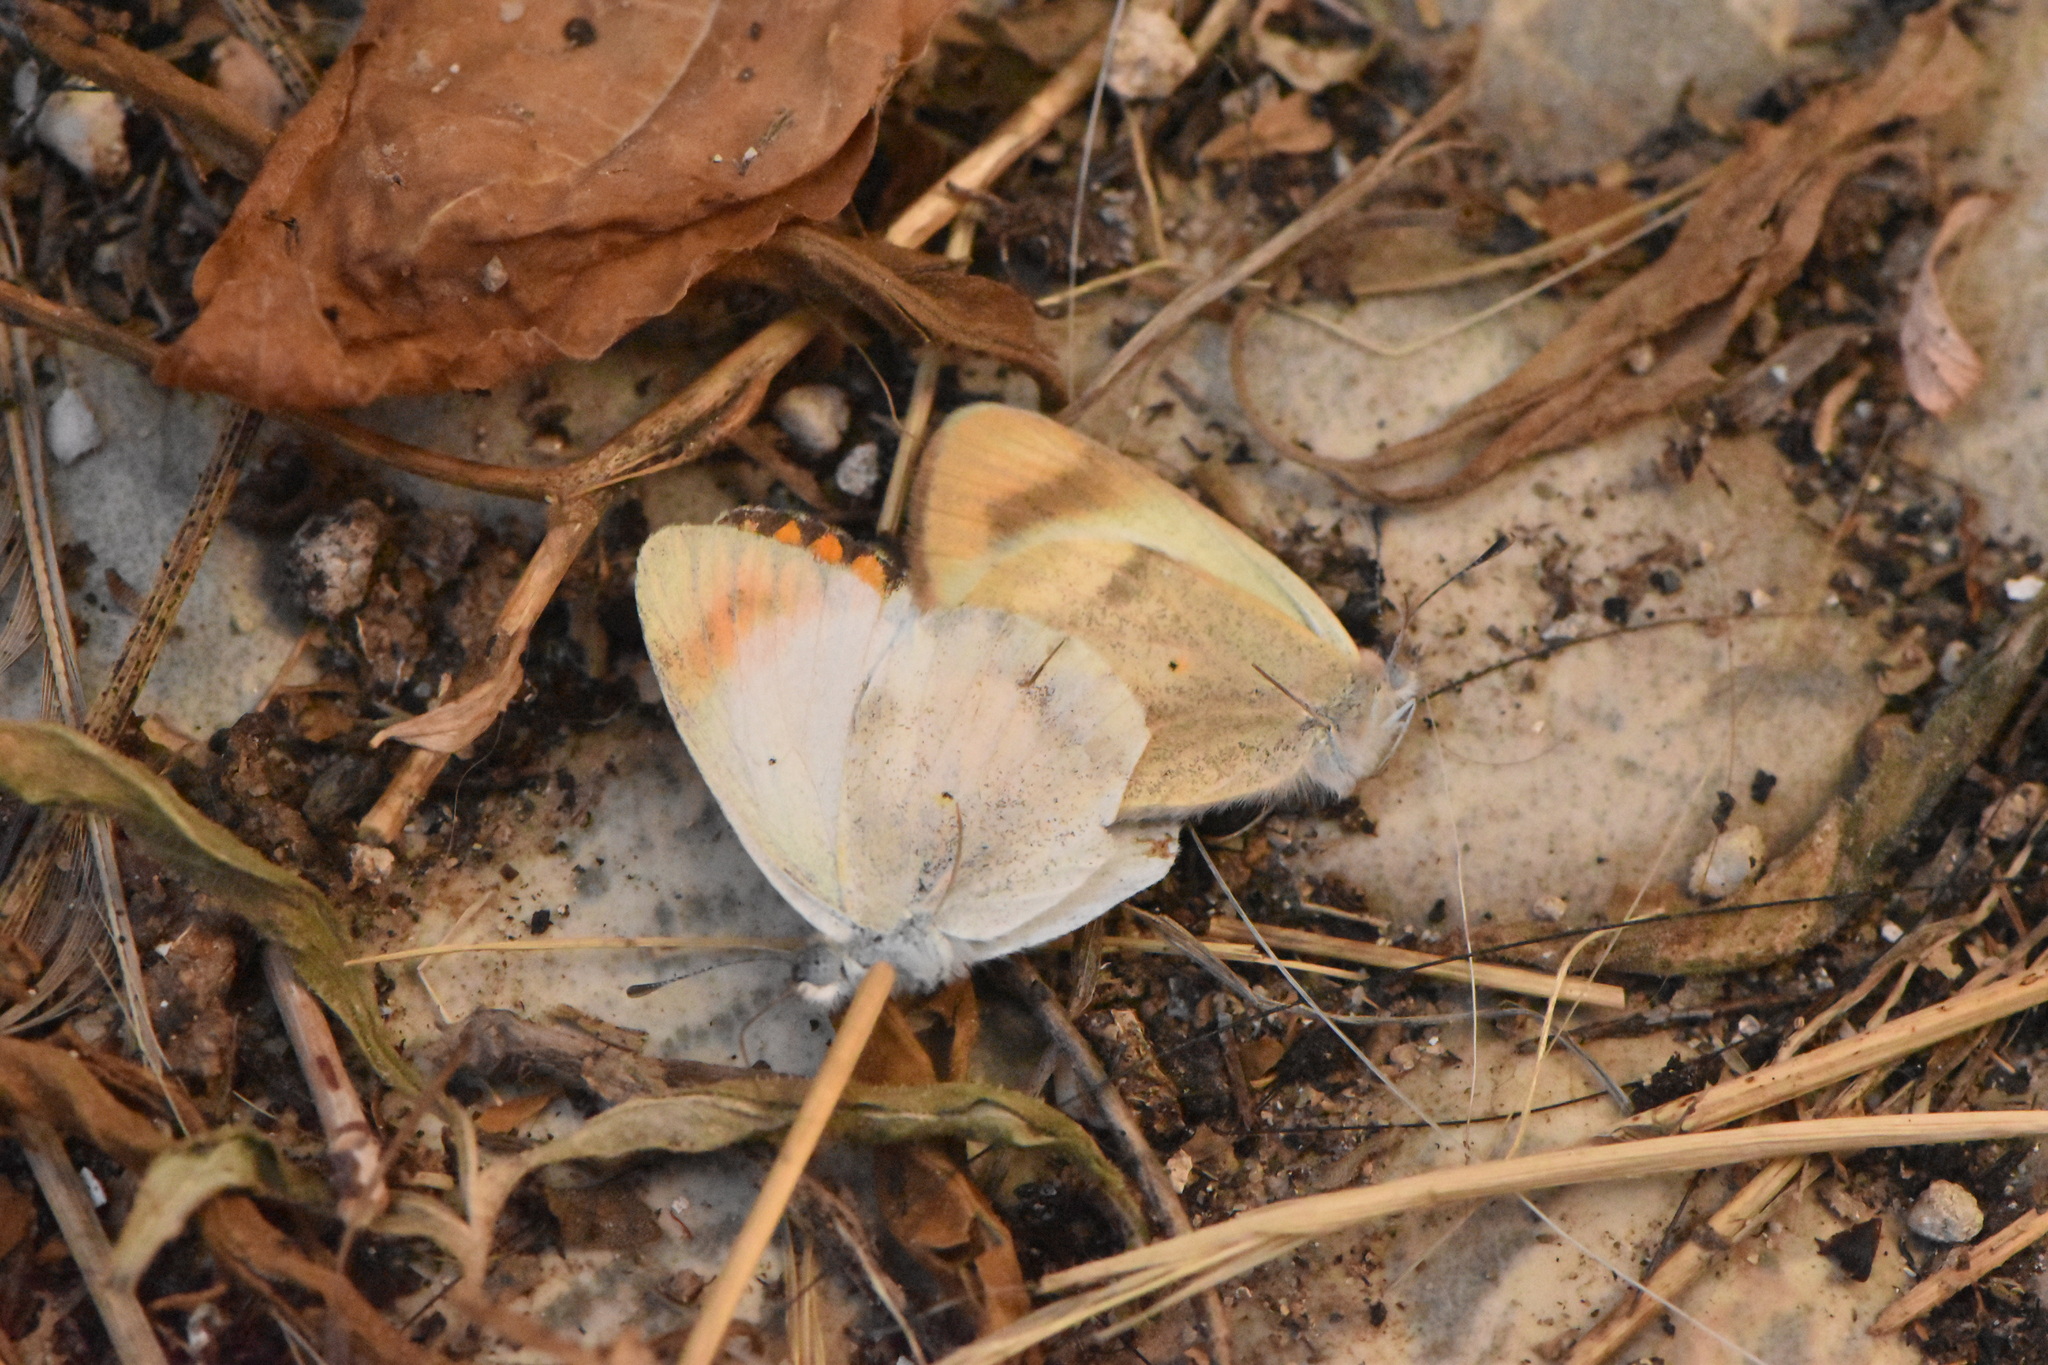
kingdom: Animalia
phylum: Arthropoda
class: Insecta
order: Lepidoptera
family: Pieridae
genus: Colotis
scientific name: Colotis evagore
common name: Desert orange-tip
